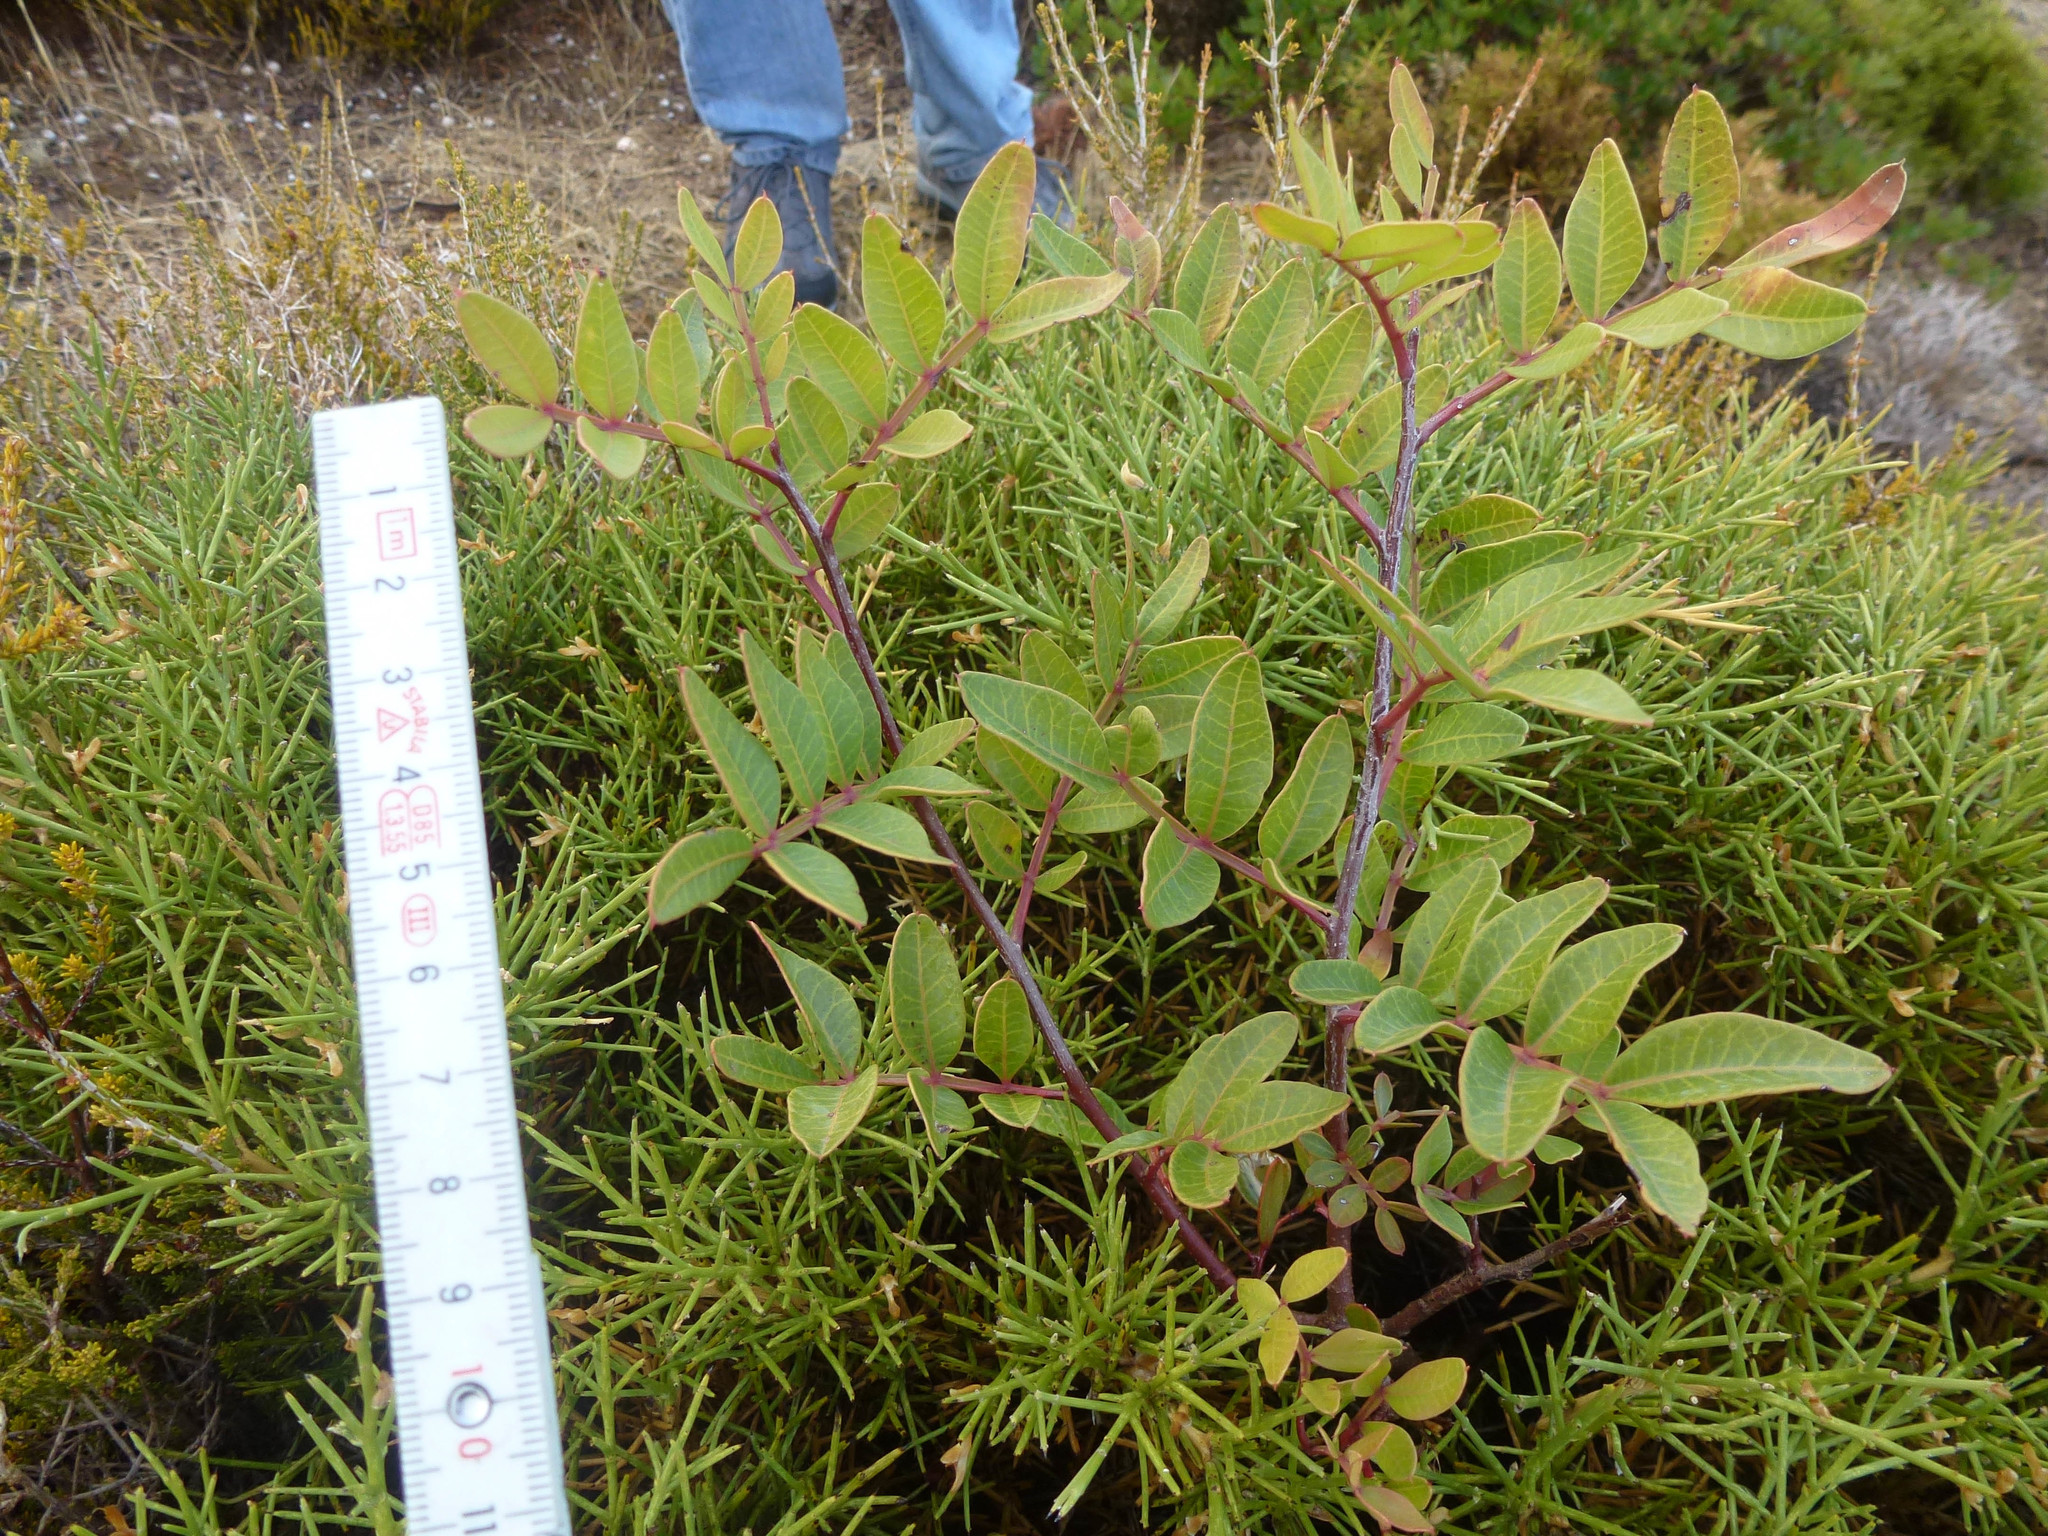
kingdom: Plantae
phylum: Tracheophyta
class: Magnoliopsida
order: Sapindales
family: Anacardiaceae
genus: Pistacia
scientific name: Pistacia lentiscus
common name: Lentisk
